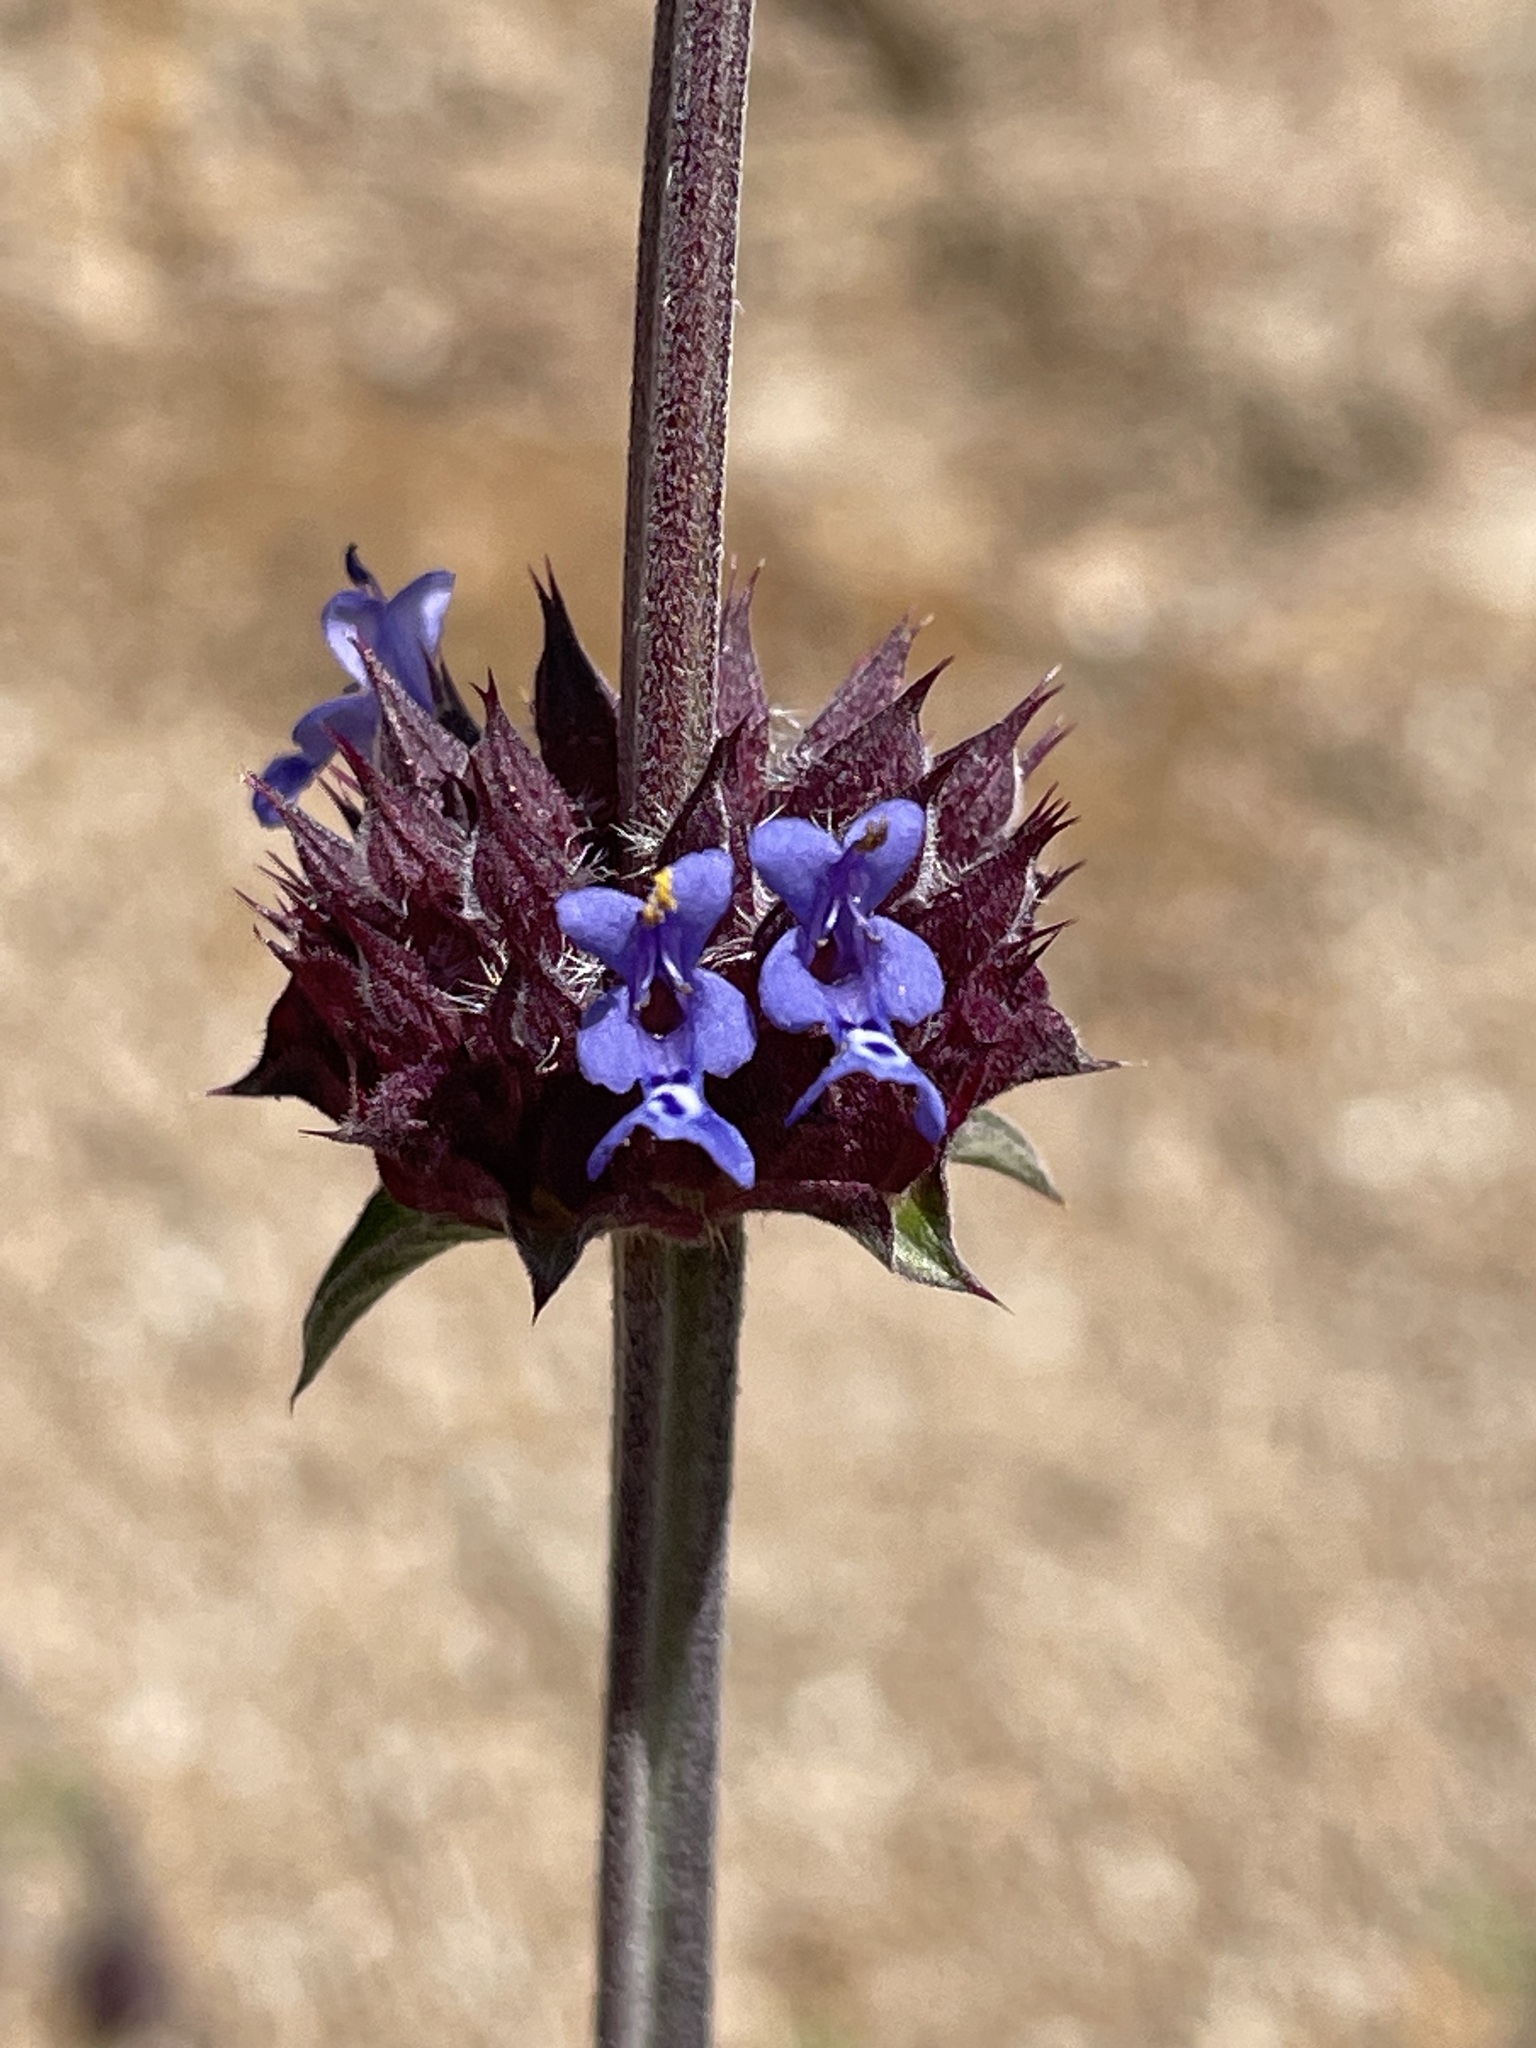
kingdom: Plantae
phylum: Tracheophyta
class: Magnoliopsida
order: Lamiales
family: Lamiaceae
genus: Salvia
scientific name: Salvia columbariae
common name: Chia
